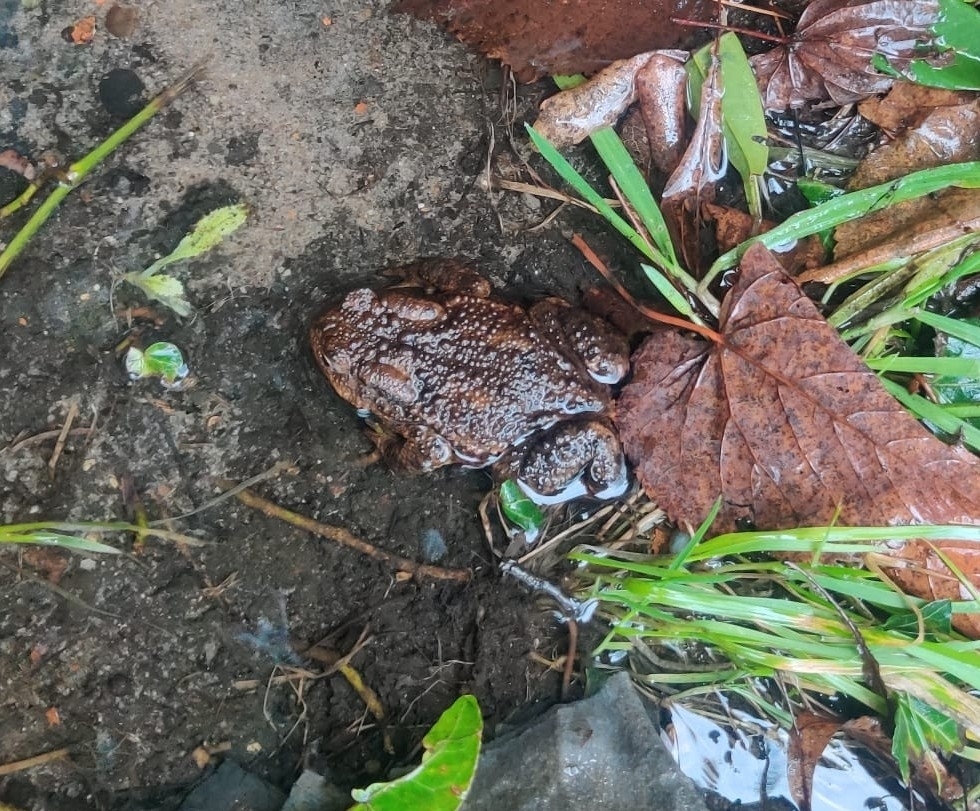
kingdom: Animalia
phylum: Chordata
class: Amphibia
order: Anura
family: Bufonidae
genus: Bufo
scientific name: Bufo bufo
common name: Common toad
